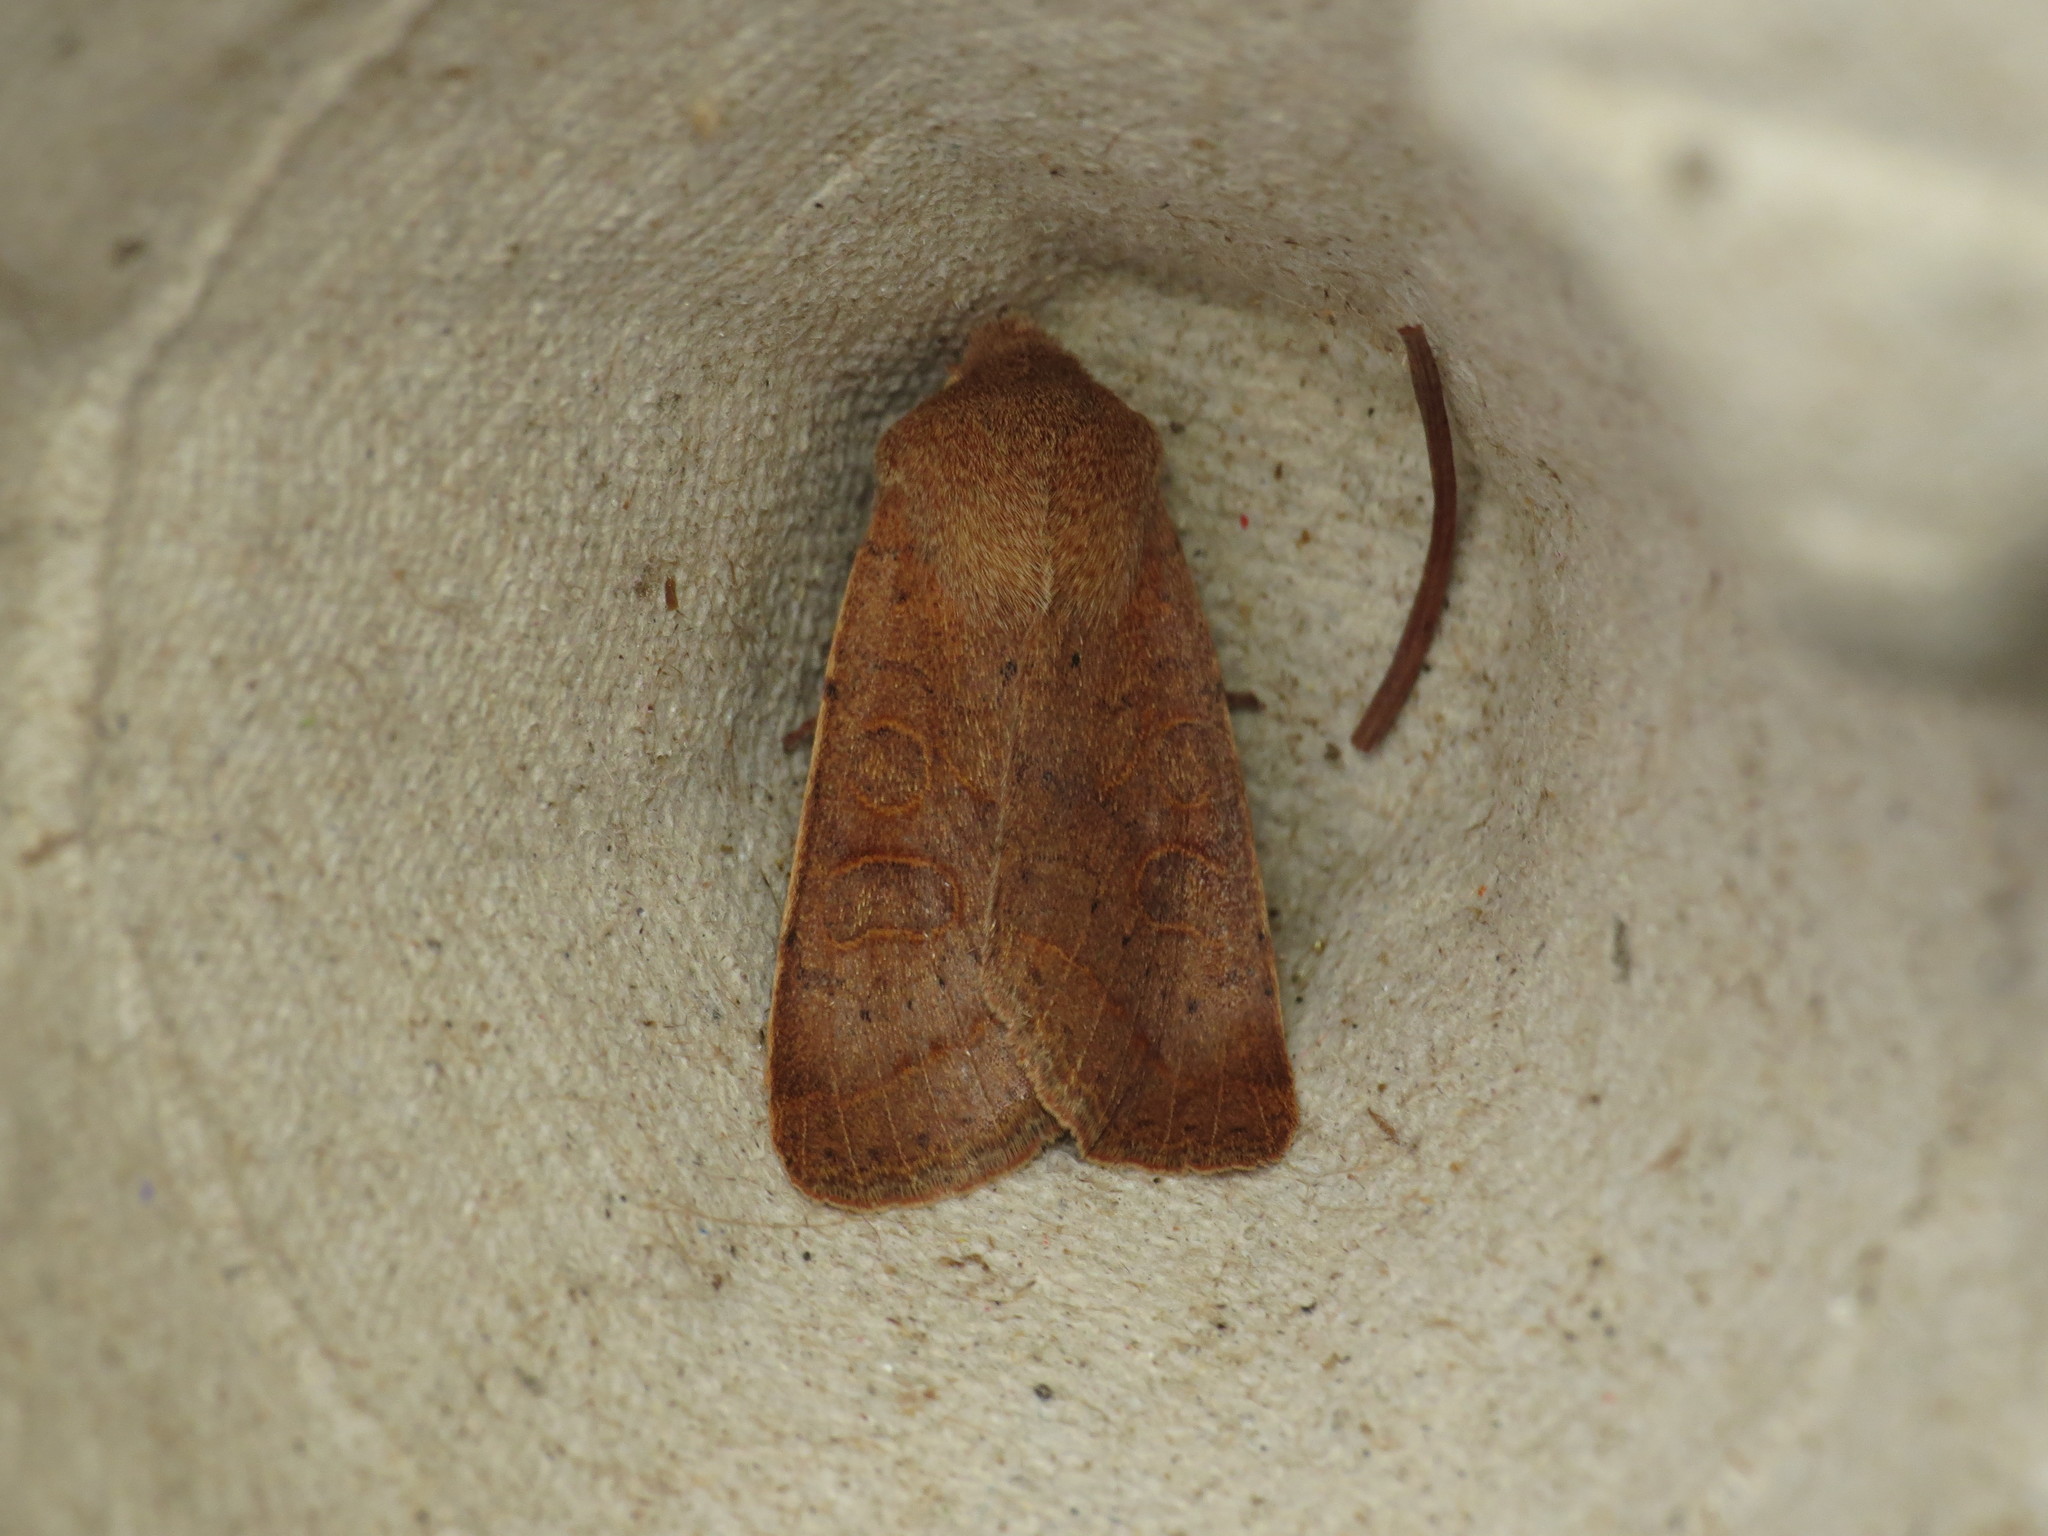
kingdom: Animalia
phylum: Arthropoda
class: Insecta
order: Lepidoptera
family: Noctuidae
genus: Orthosia
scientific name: Orthosia cerasi
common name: Common quaker
